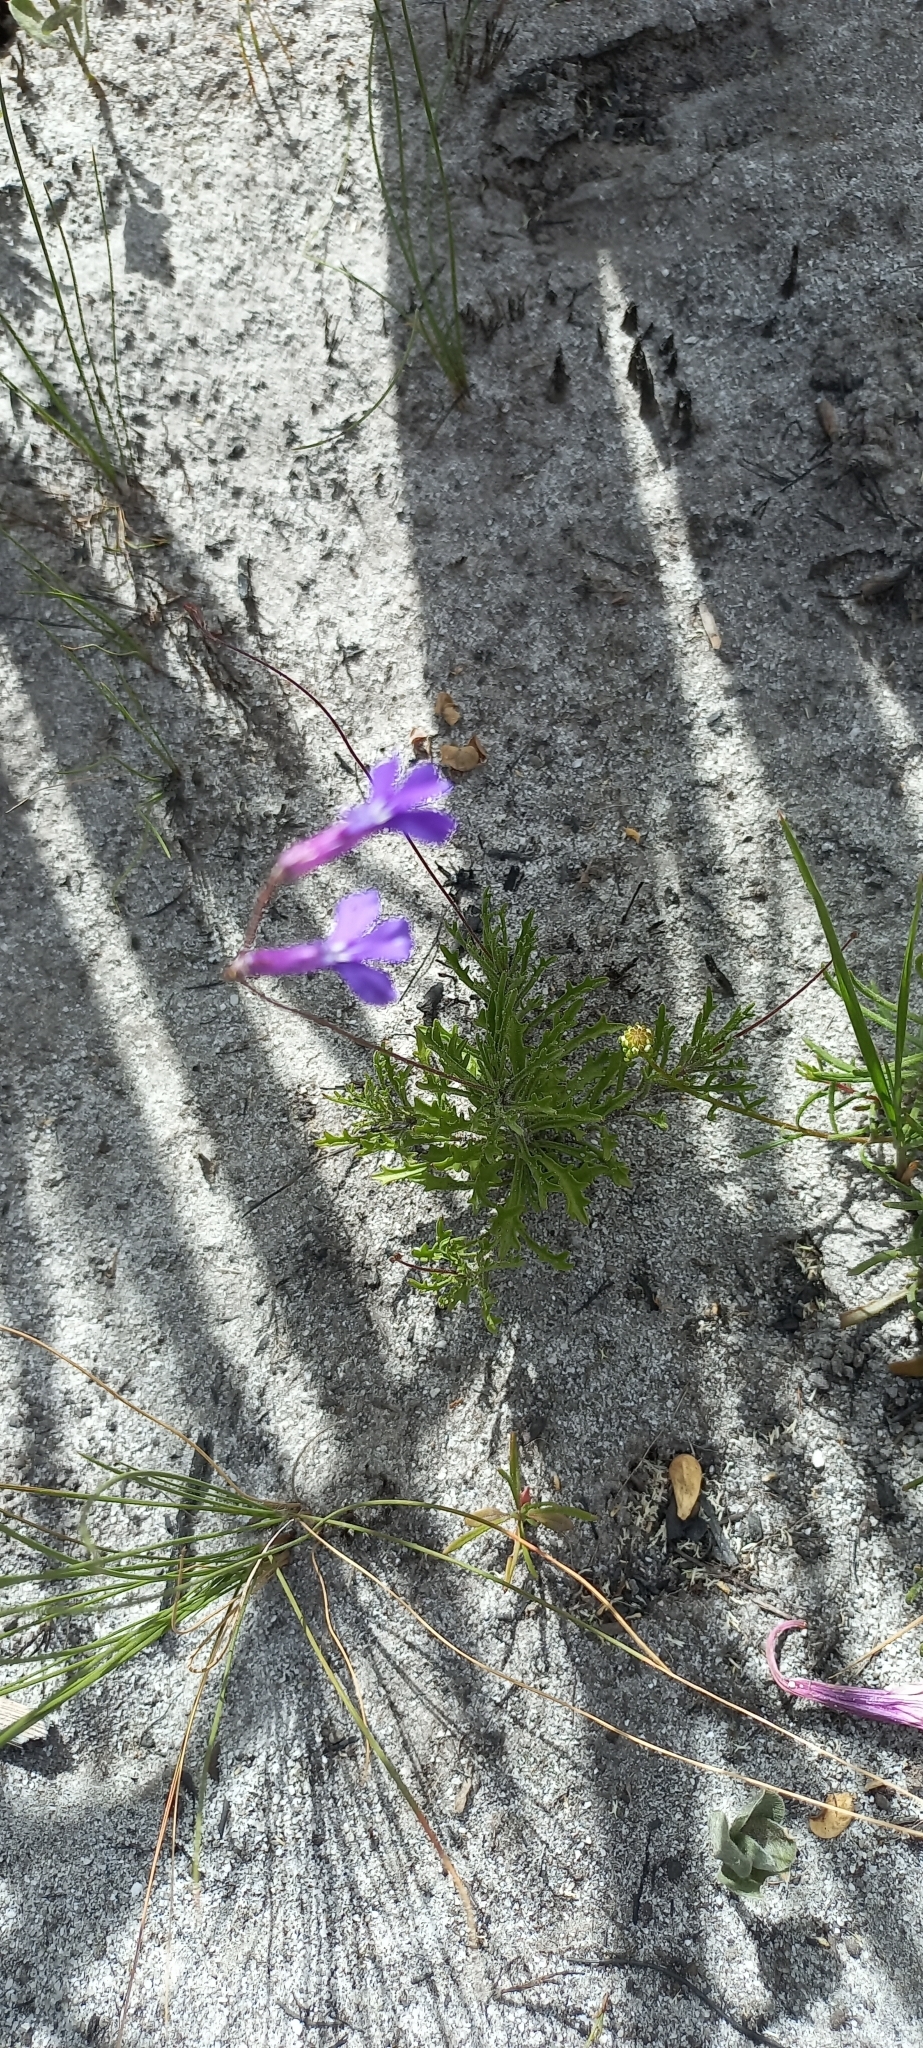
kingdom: Plantae
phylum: Tracheophyta
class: Magnoliopsida
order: Asterales
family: Campanulaceae
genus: Lobelia
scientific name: Lobelia coronopifolia
